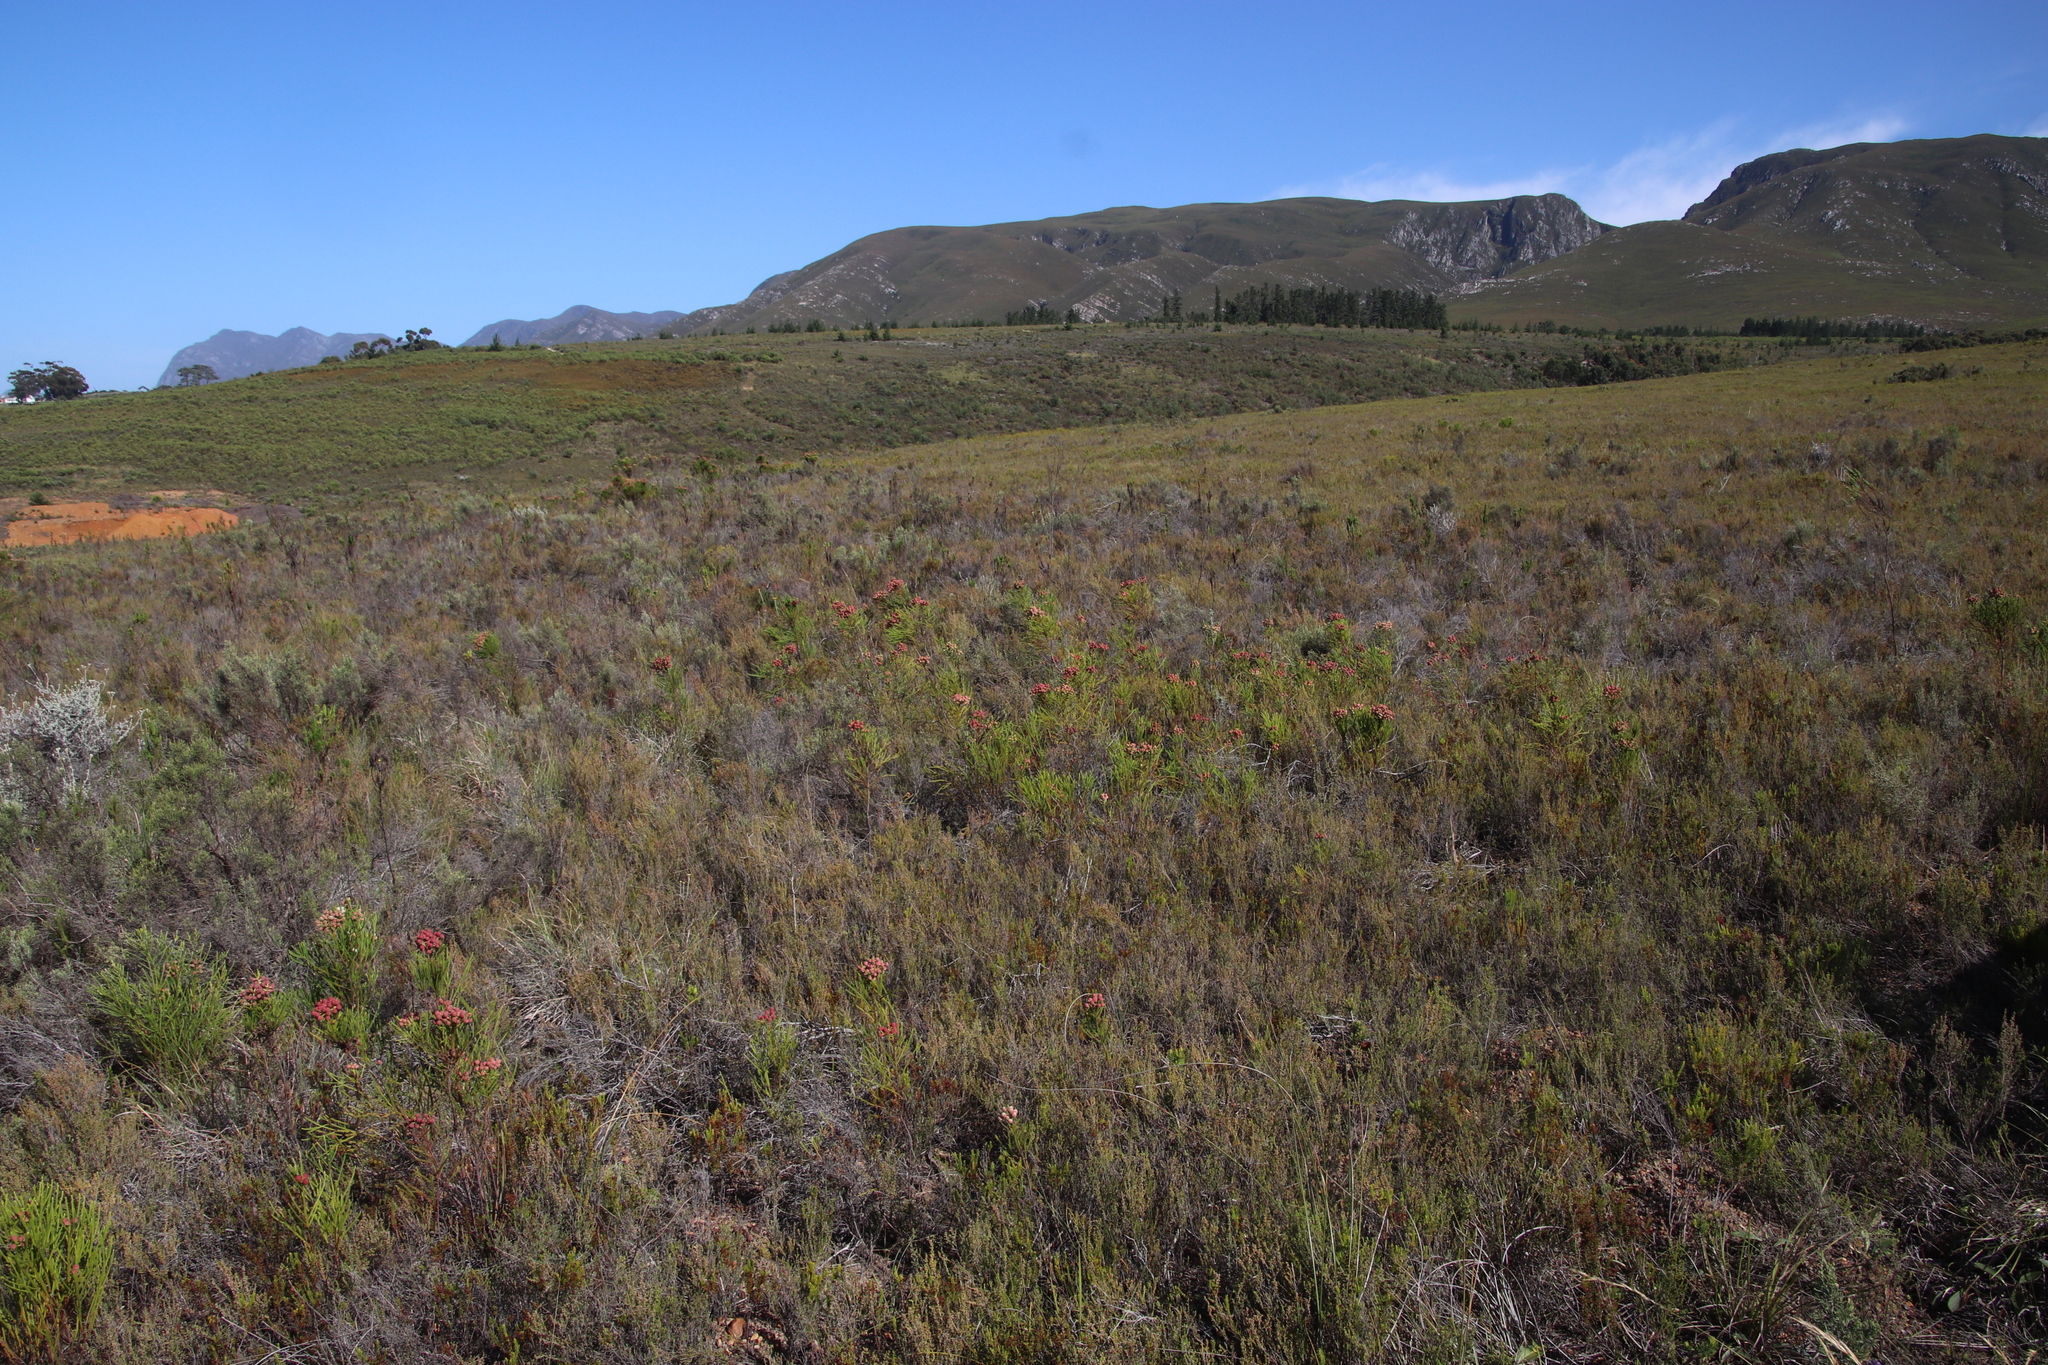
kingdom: Plantae
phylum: Tracheophyta
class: Magnoliopsida
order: Bruniales
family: Bruniaceae
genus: Berzelia
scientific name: Berzelia lanuginosa
